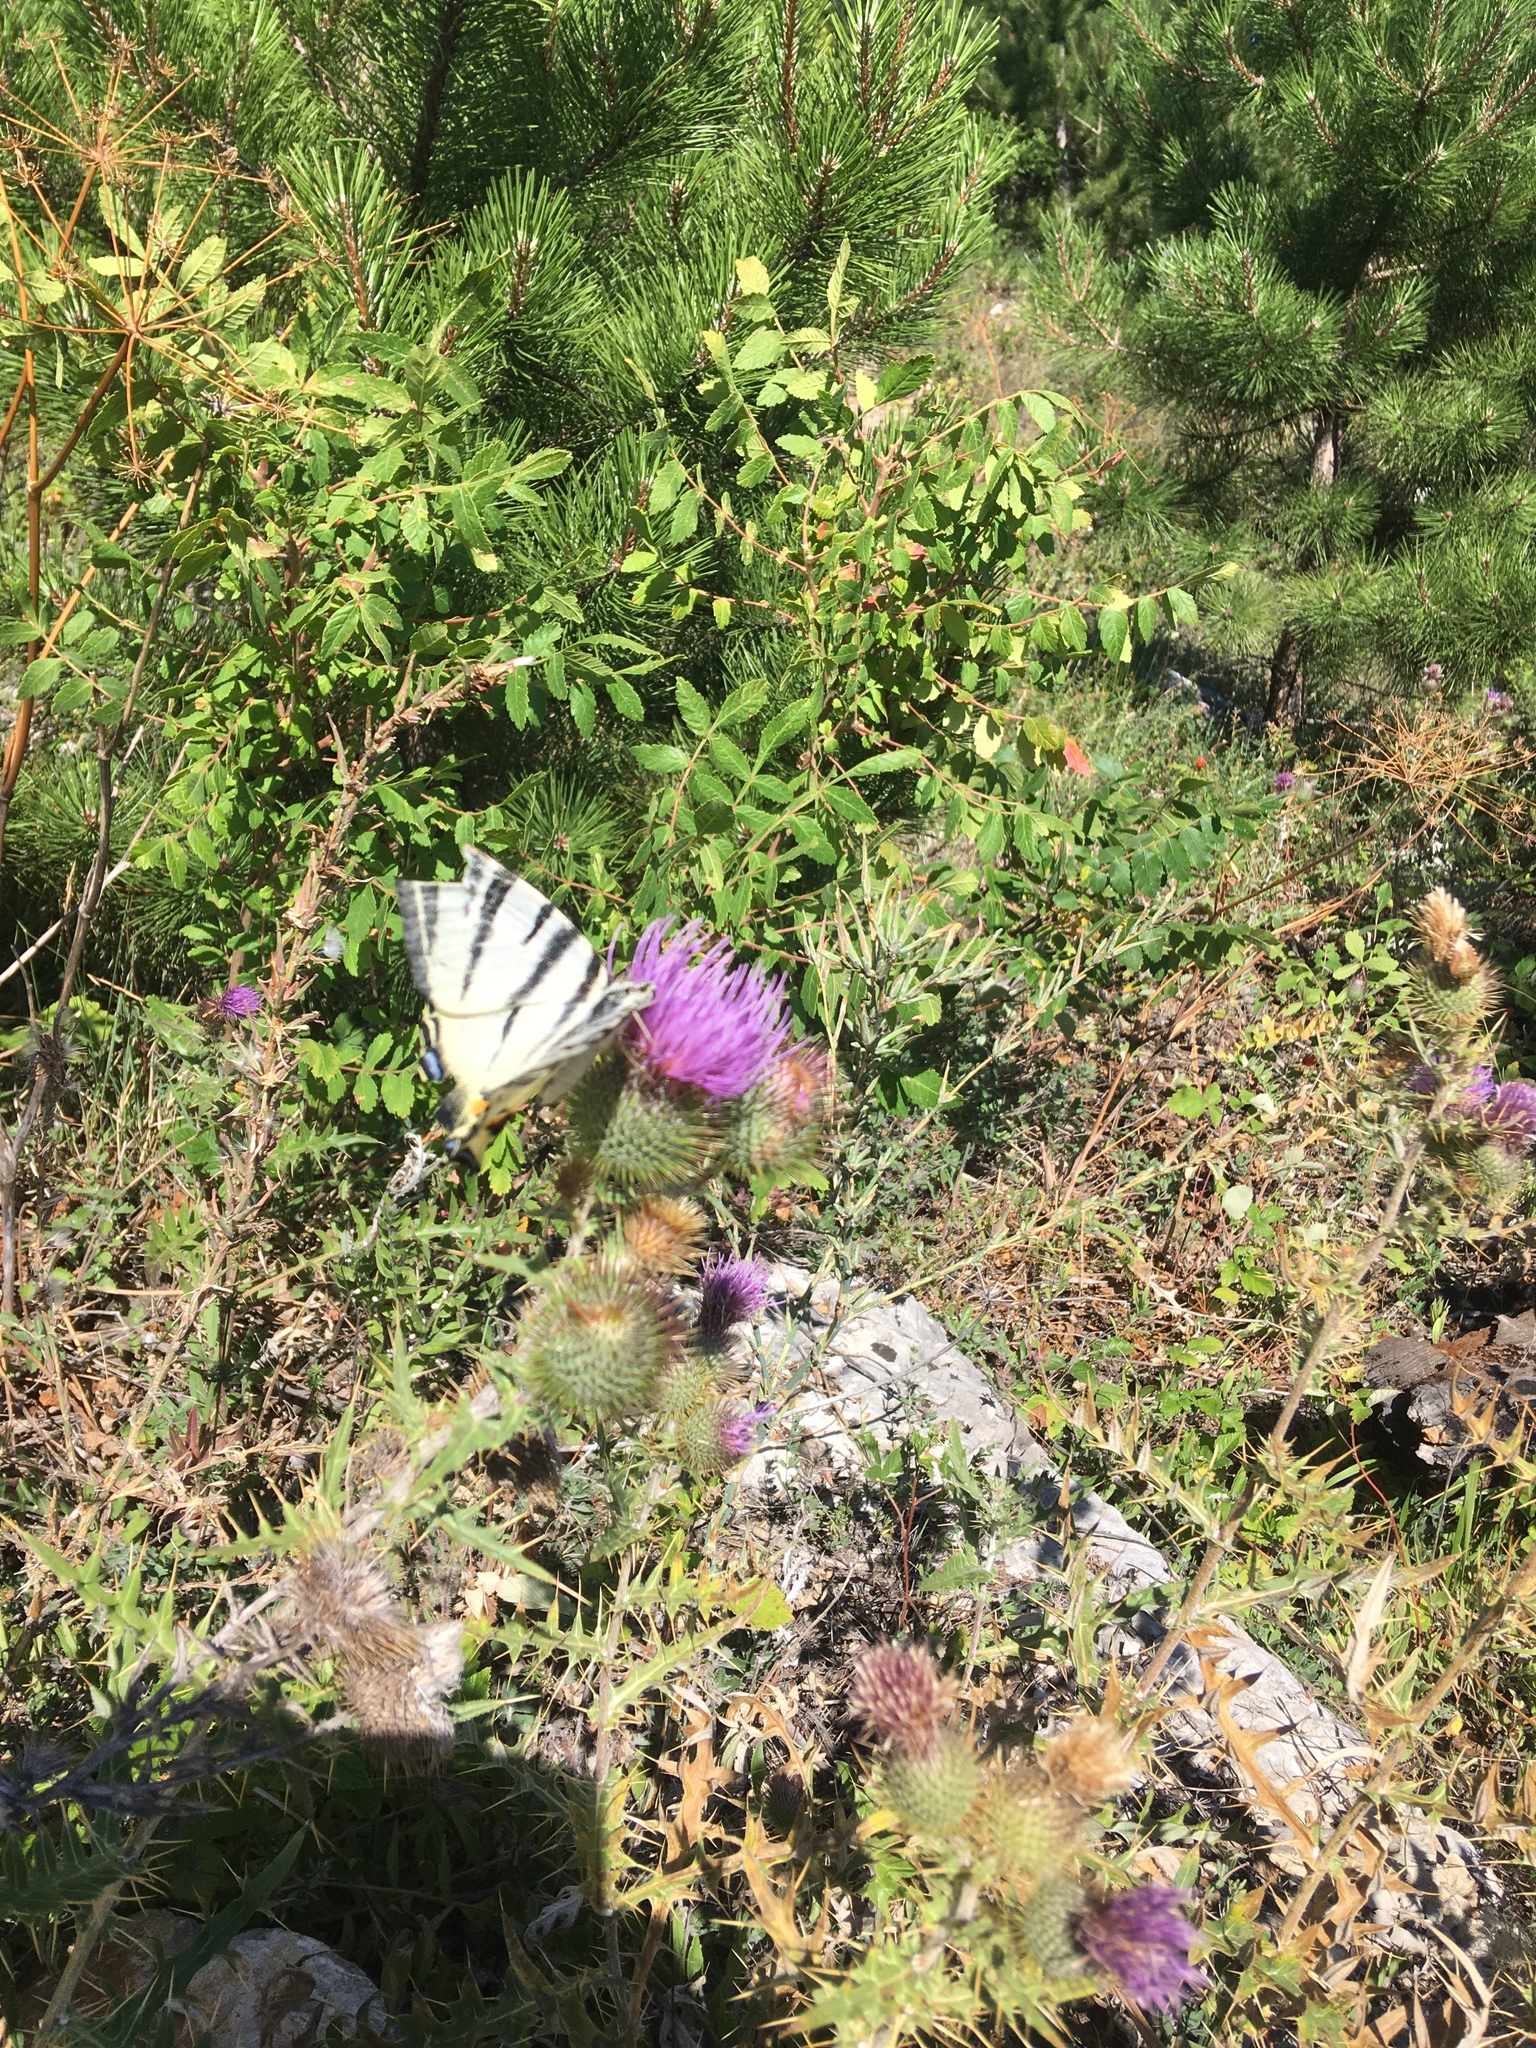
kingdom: Animalia
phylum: Arthropoda
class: Insecta
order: Lepidoptera
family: Papilionidae
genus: Iphiclides
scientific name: Iphiclides podalirius
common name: Scarce swallowtail
